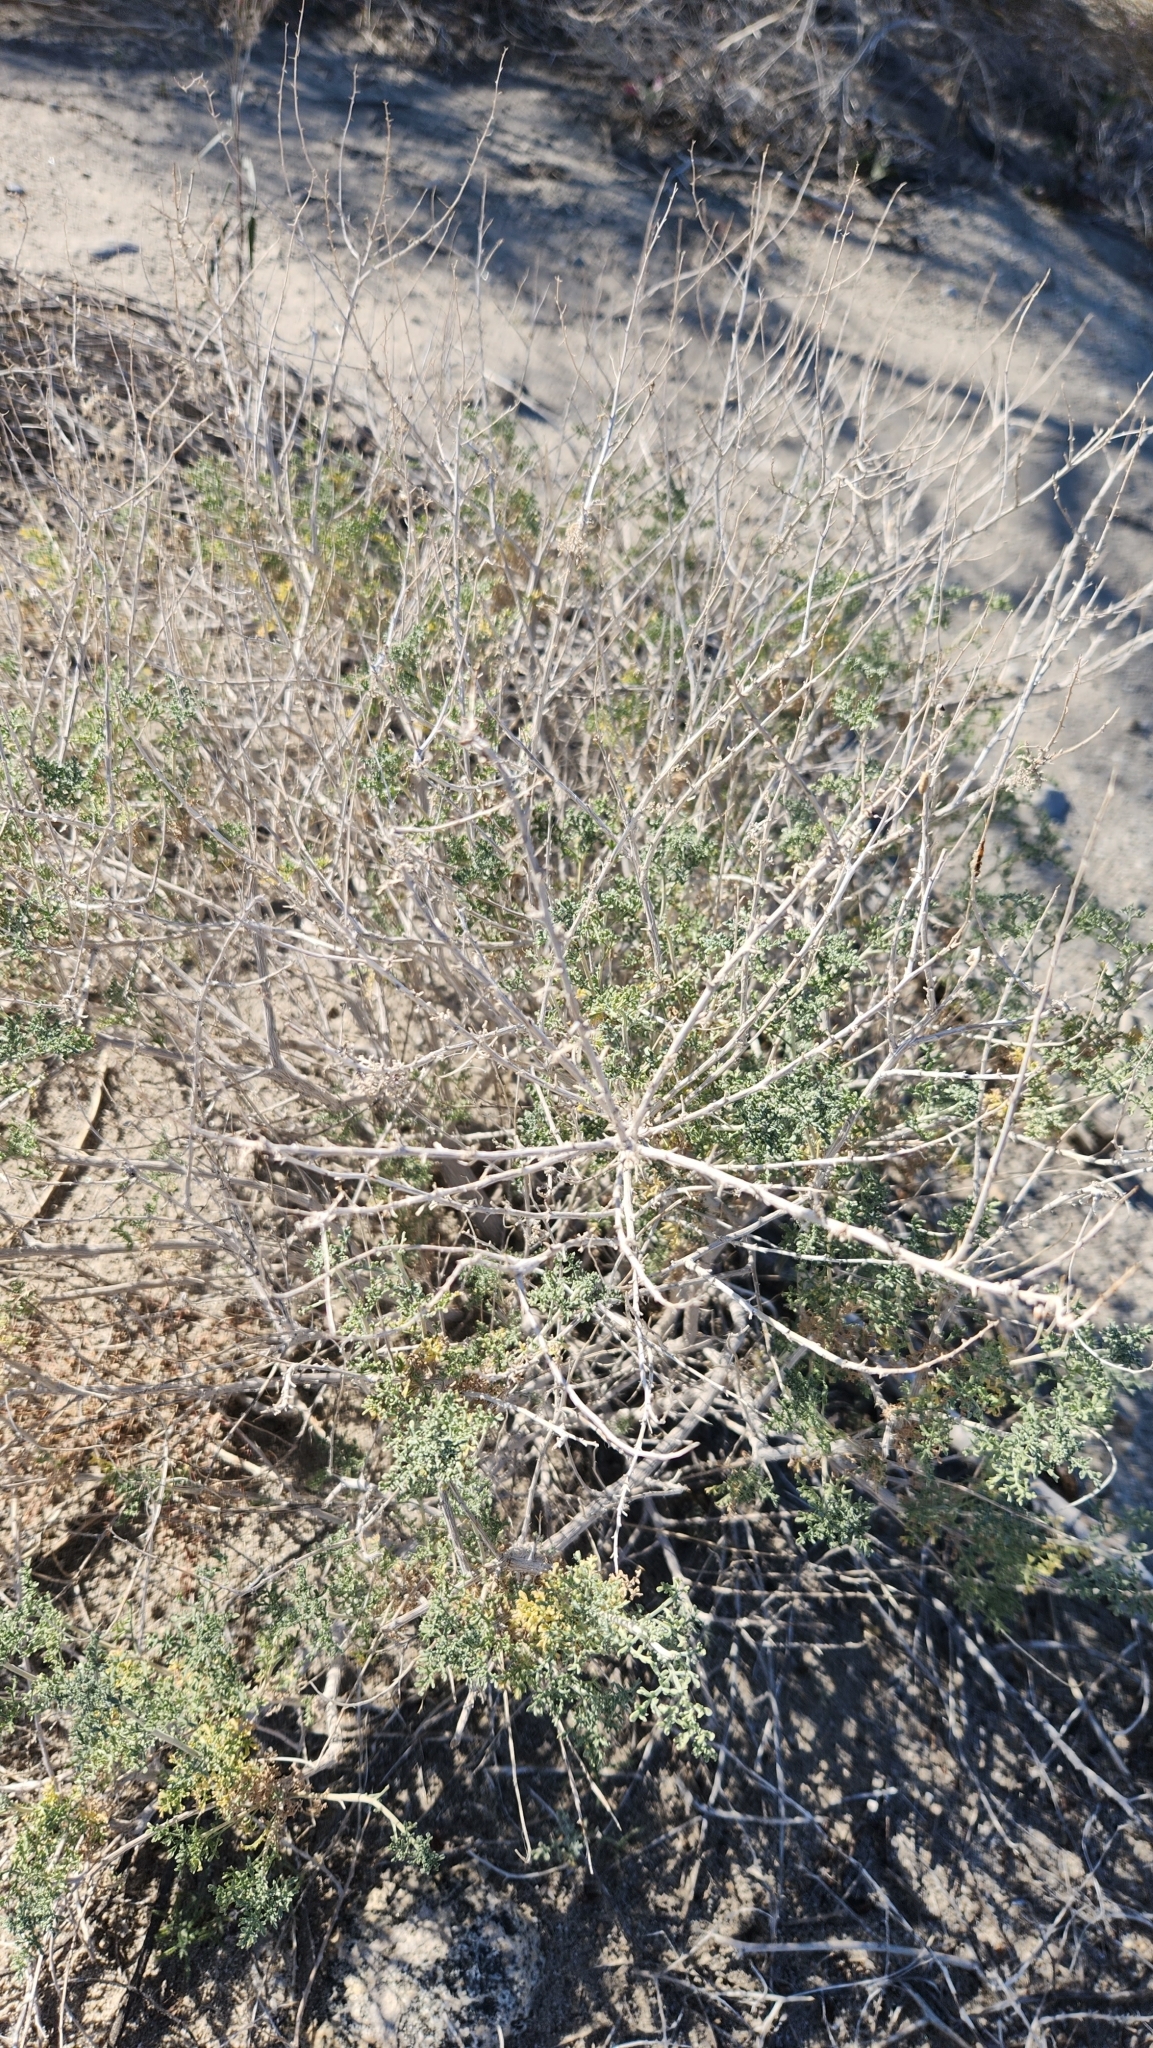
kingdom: Plantae
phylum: Tracheophyta
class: Magnoliopsida
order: Asterales
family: Asteraceae
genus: Ambrosia
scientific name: Ambrosia dumosa
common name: Bur-sage
